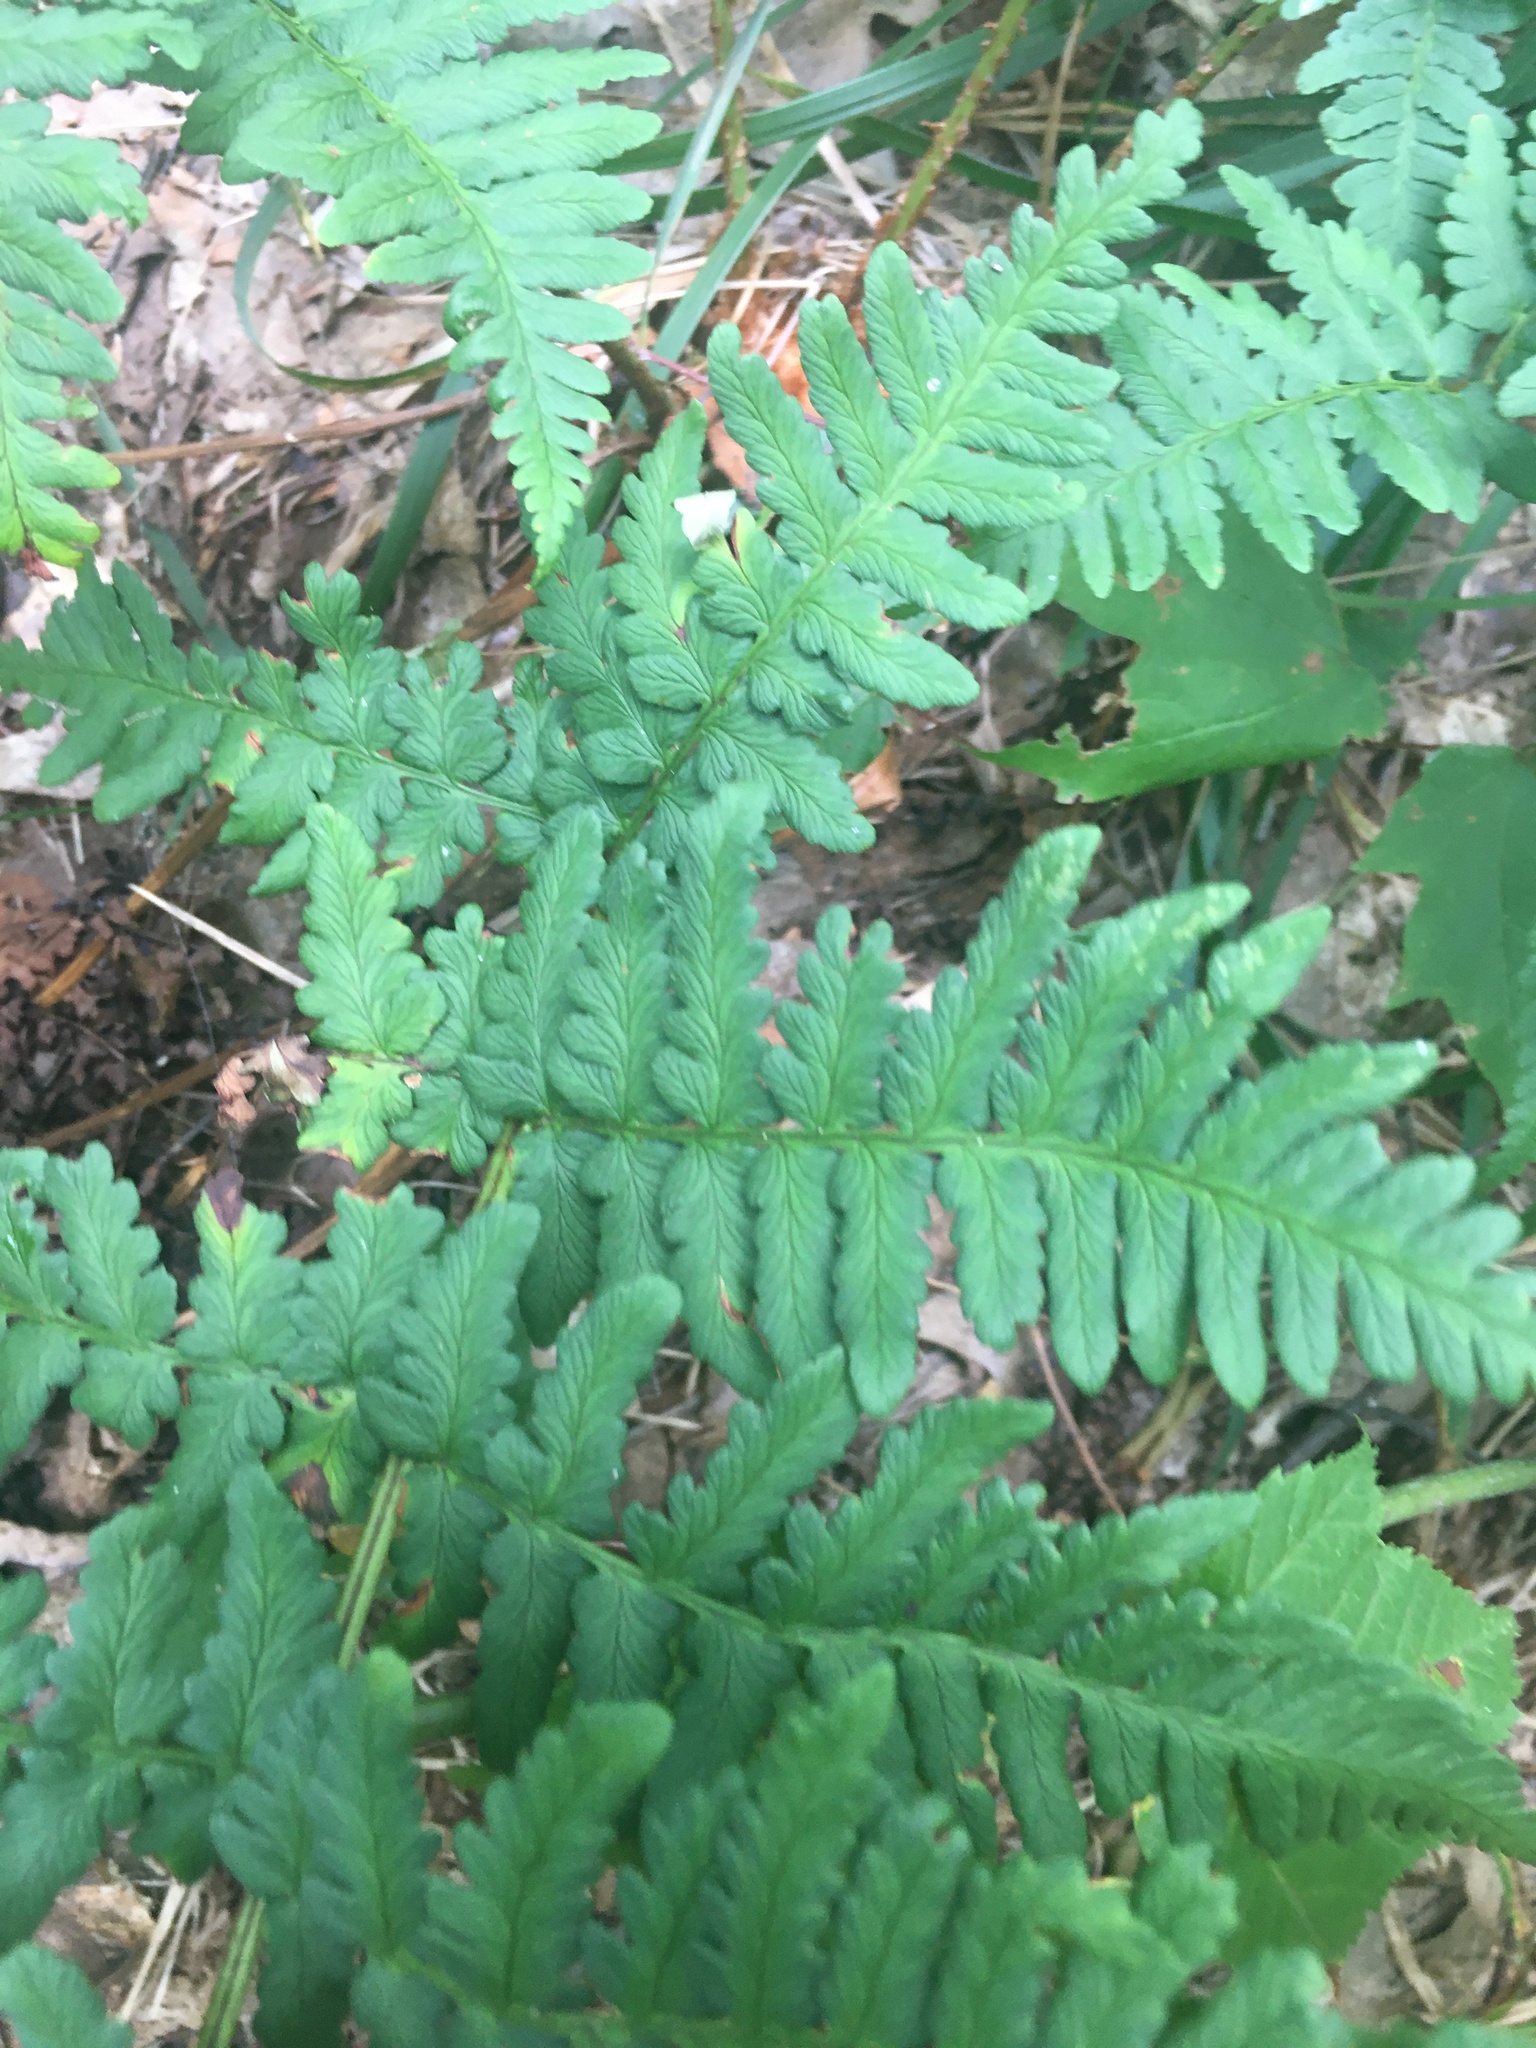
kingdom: Plantae
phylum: Tracheophyta
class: Polypodiopsida
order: Polypodiales
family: Dryopteridaceae
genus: Dryopteris
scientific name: Dryopteris marginalis
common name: Marginal wood fern
